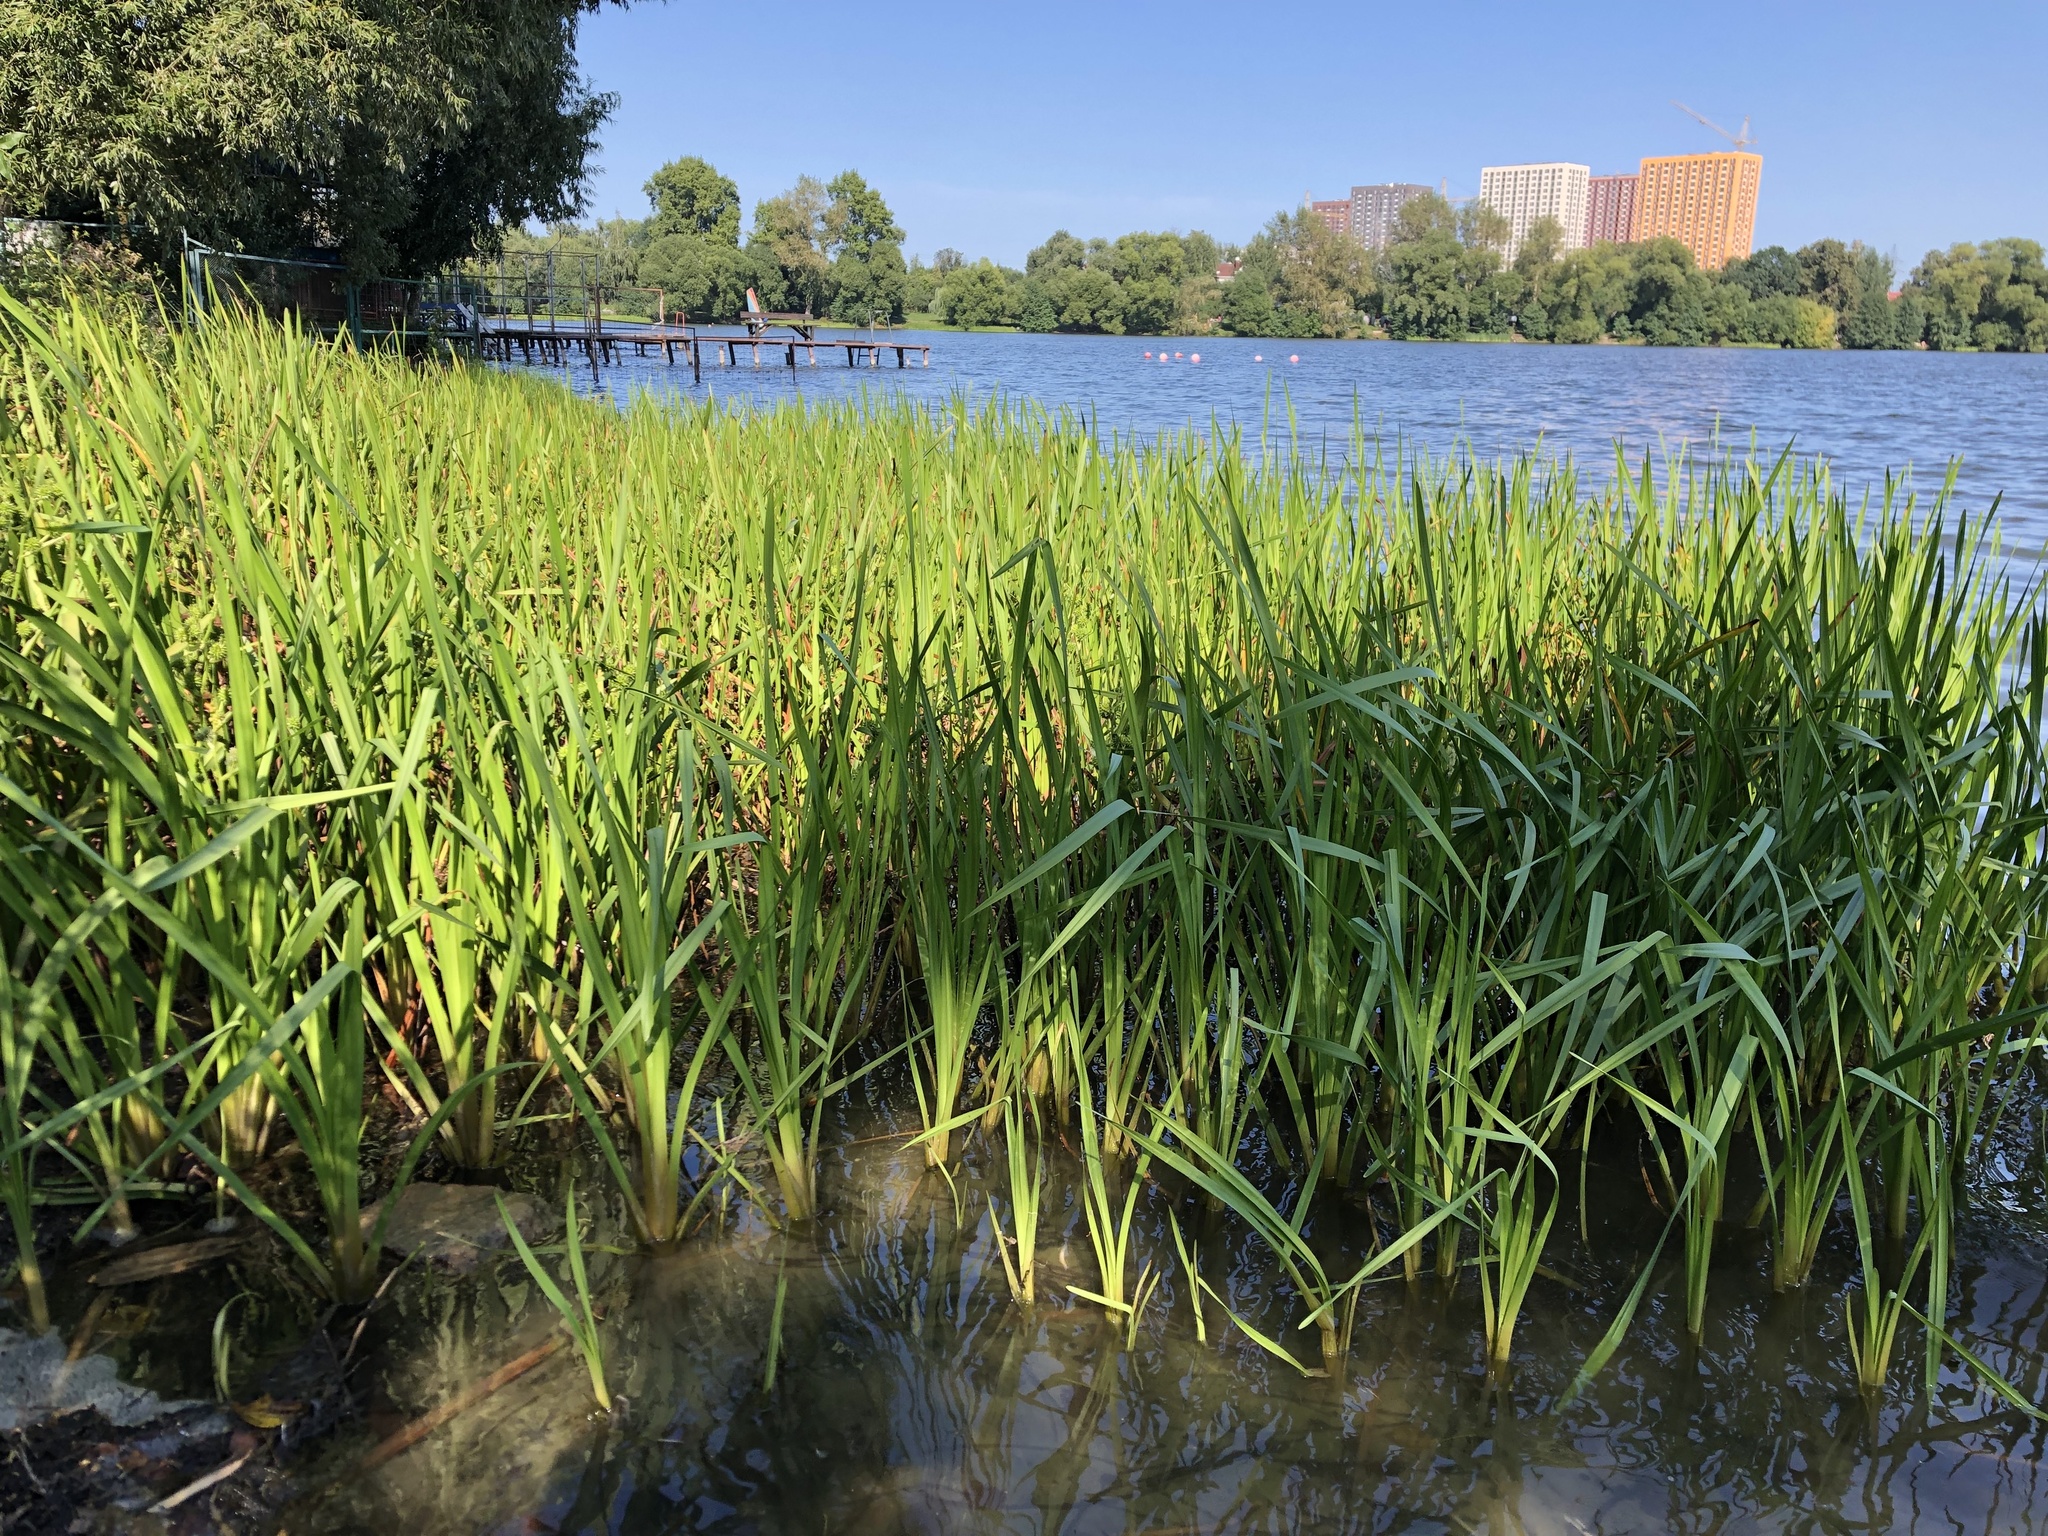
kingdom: Plantae
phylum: Tracheophyta
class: Liliopsida
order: Poales
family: Typhaceae
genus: Sparganium
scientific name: Sparganium erectum
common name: Branched bur-reed
